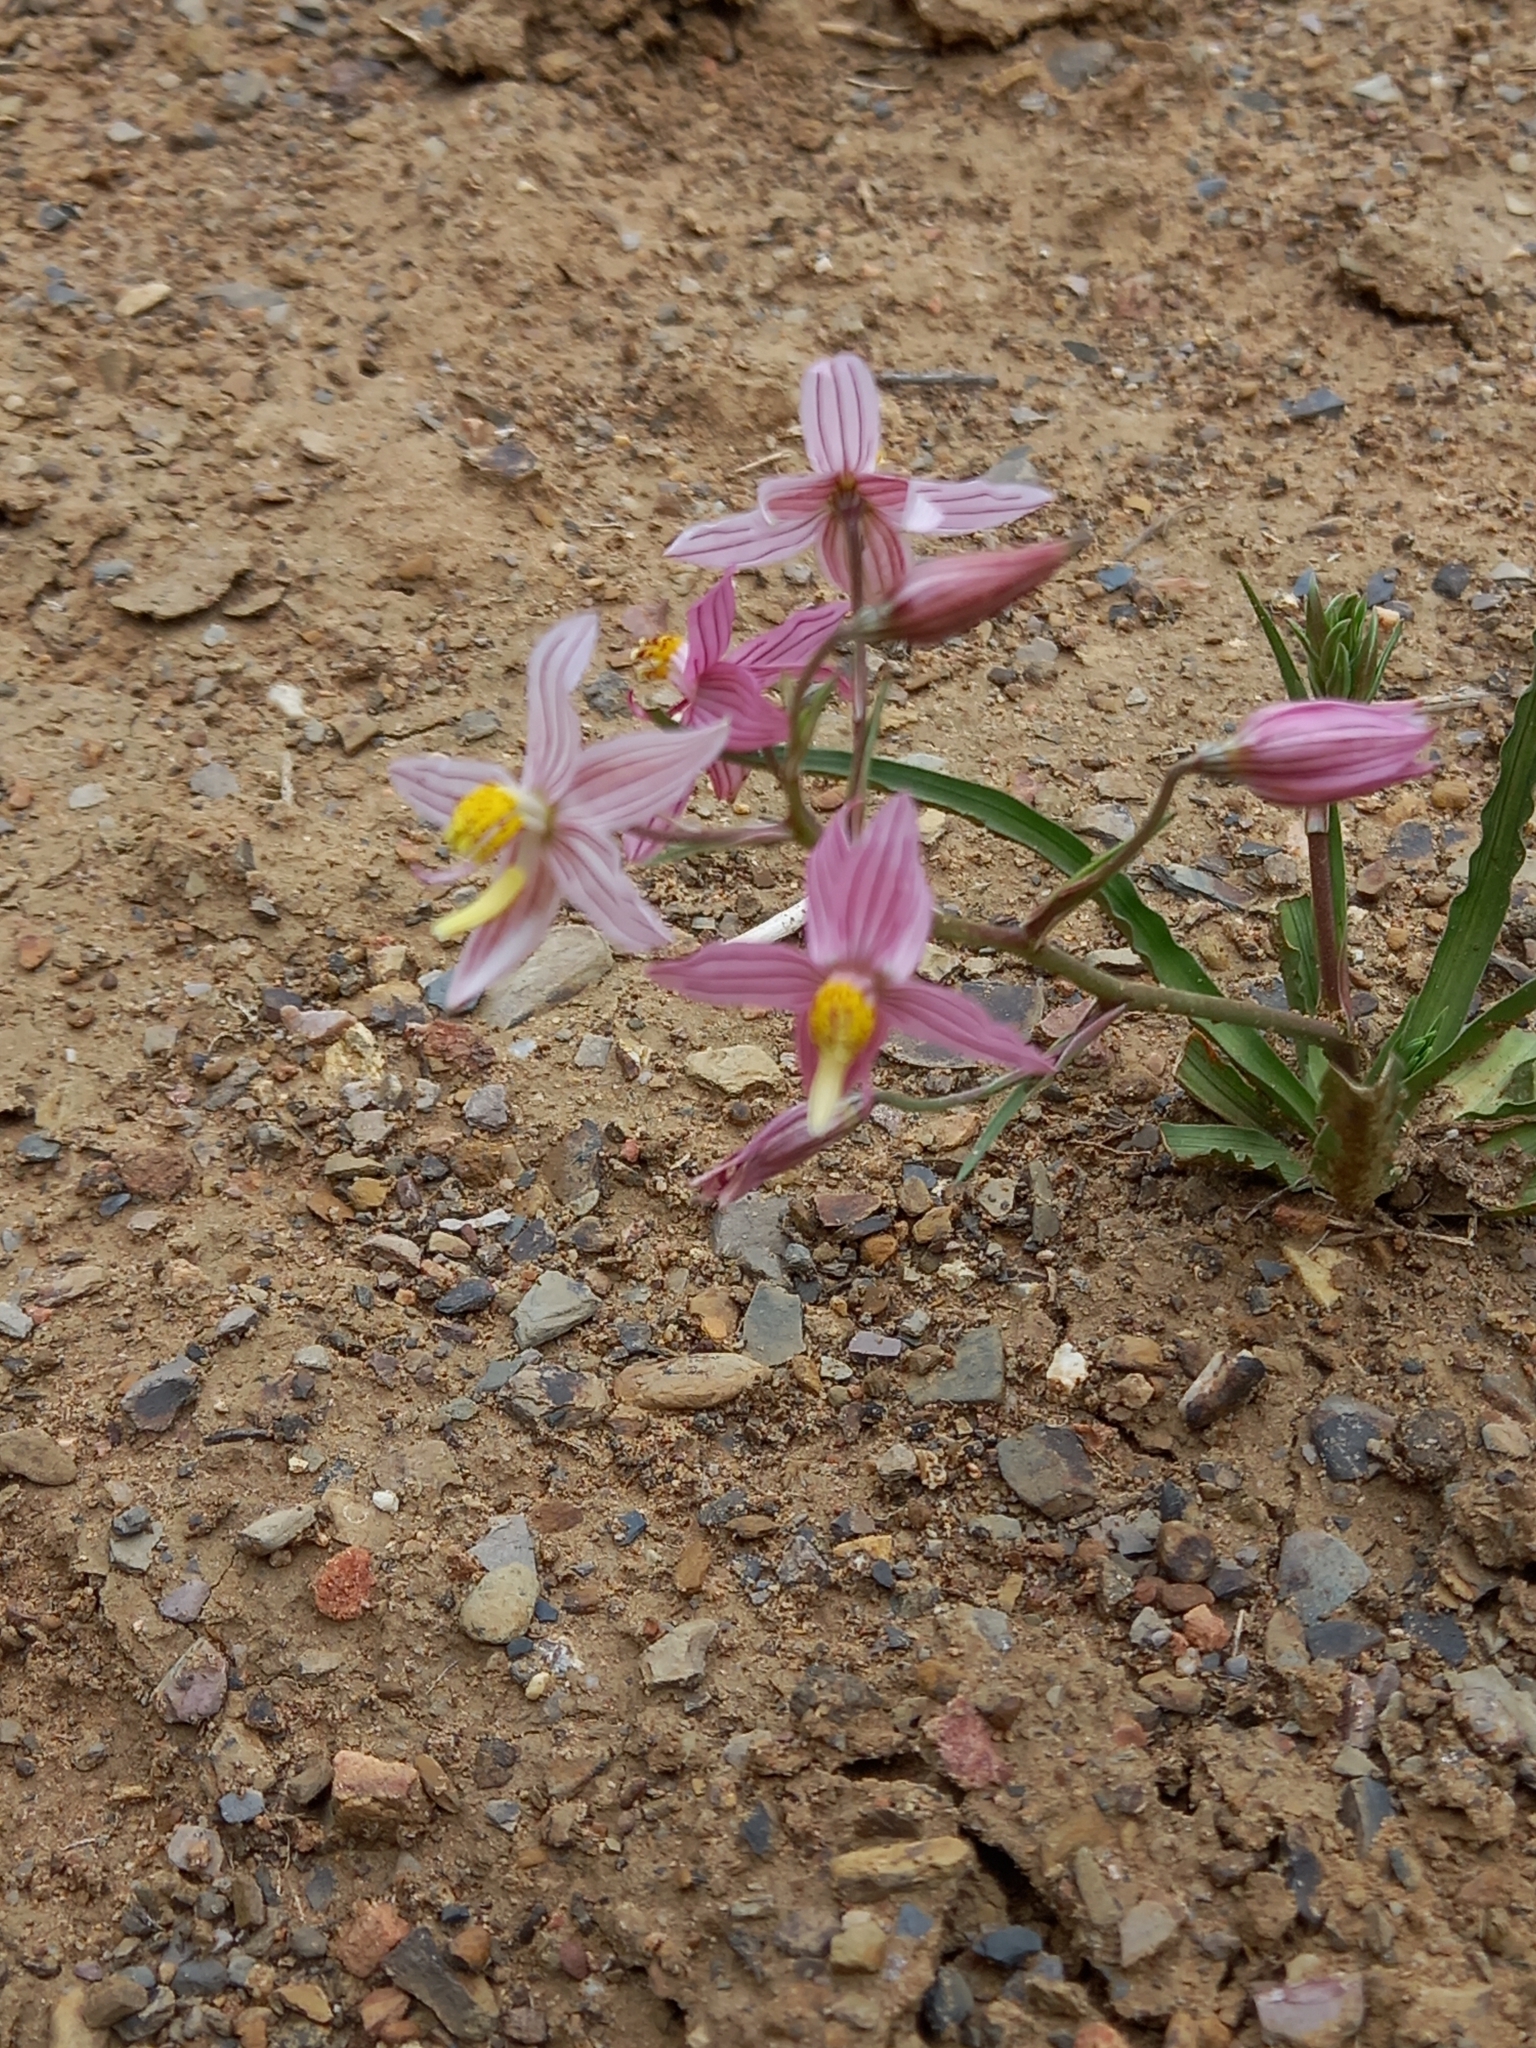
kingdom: Plantae
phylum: Tracheophyta
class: Liliopsida
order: Asparagales
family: Tecophilaeaceae
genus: Cyanella
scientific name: Cyanella lutea
